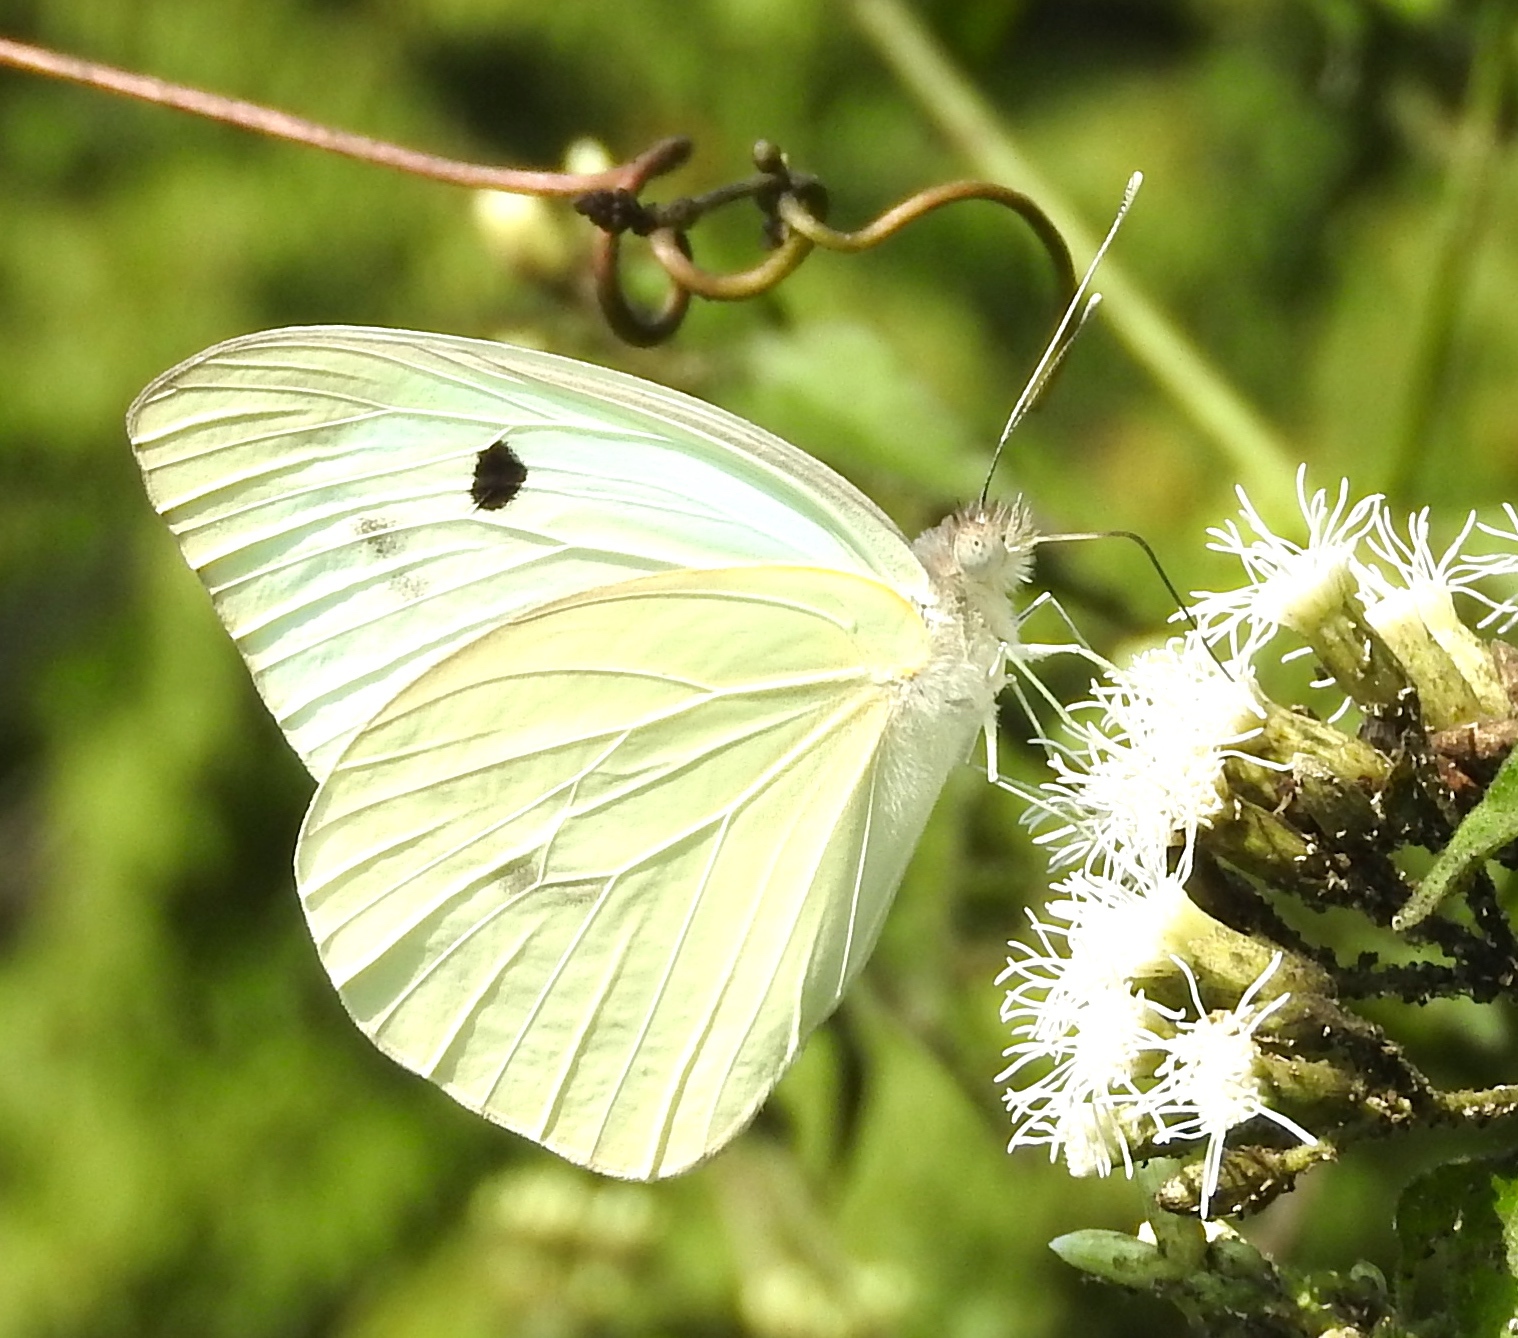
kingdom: Animalia
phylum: Arthropoda
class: Insecta
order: Lepidoptera
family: Pieridae
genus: Ganyra
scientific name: Ganyra josephina
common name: Giant white
